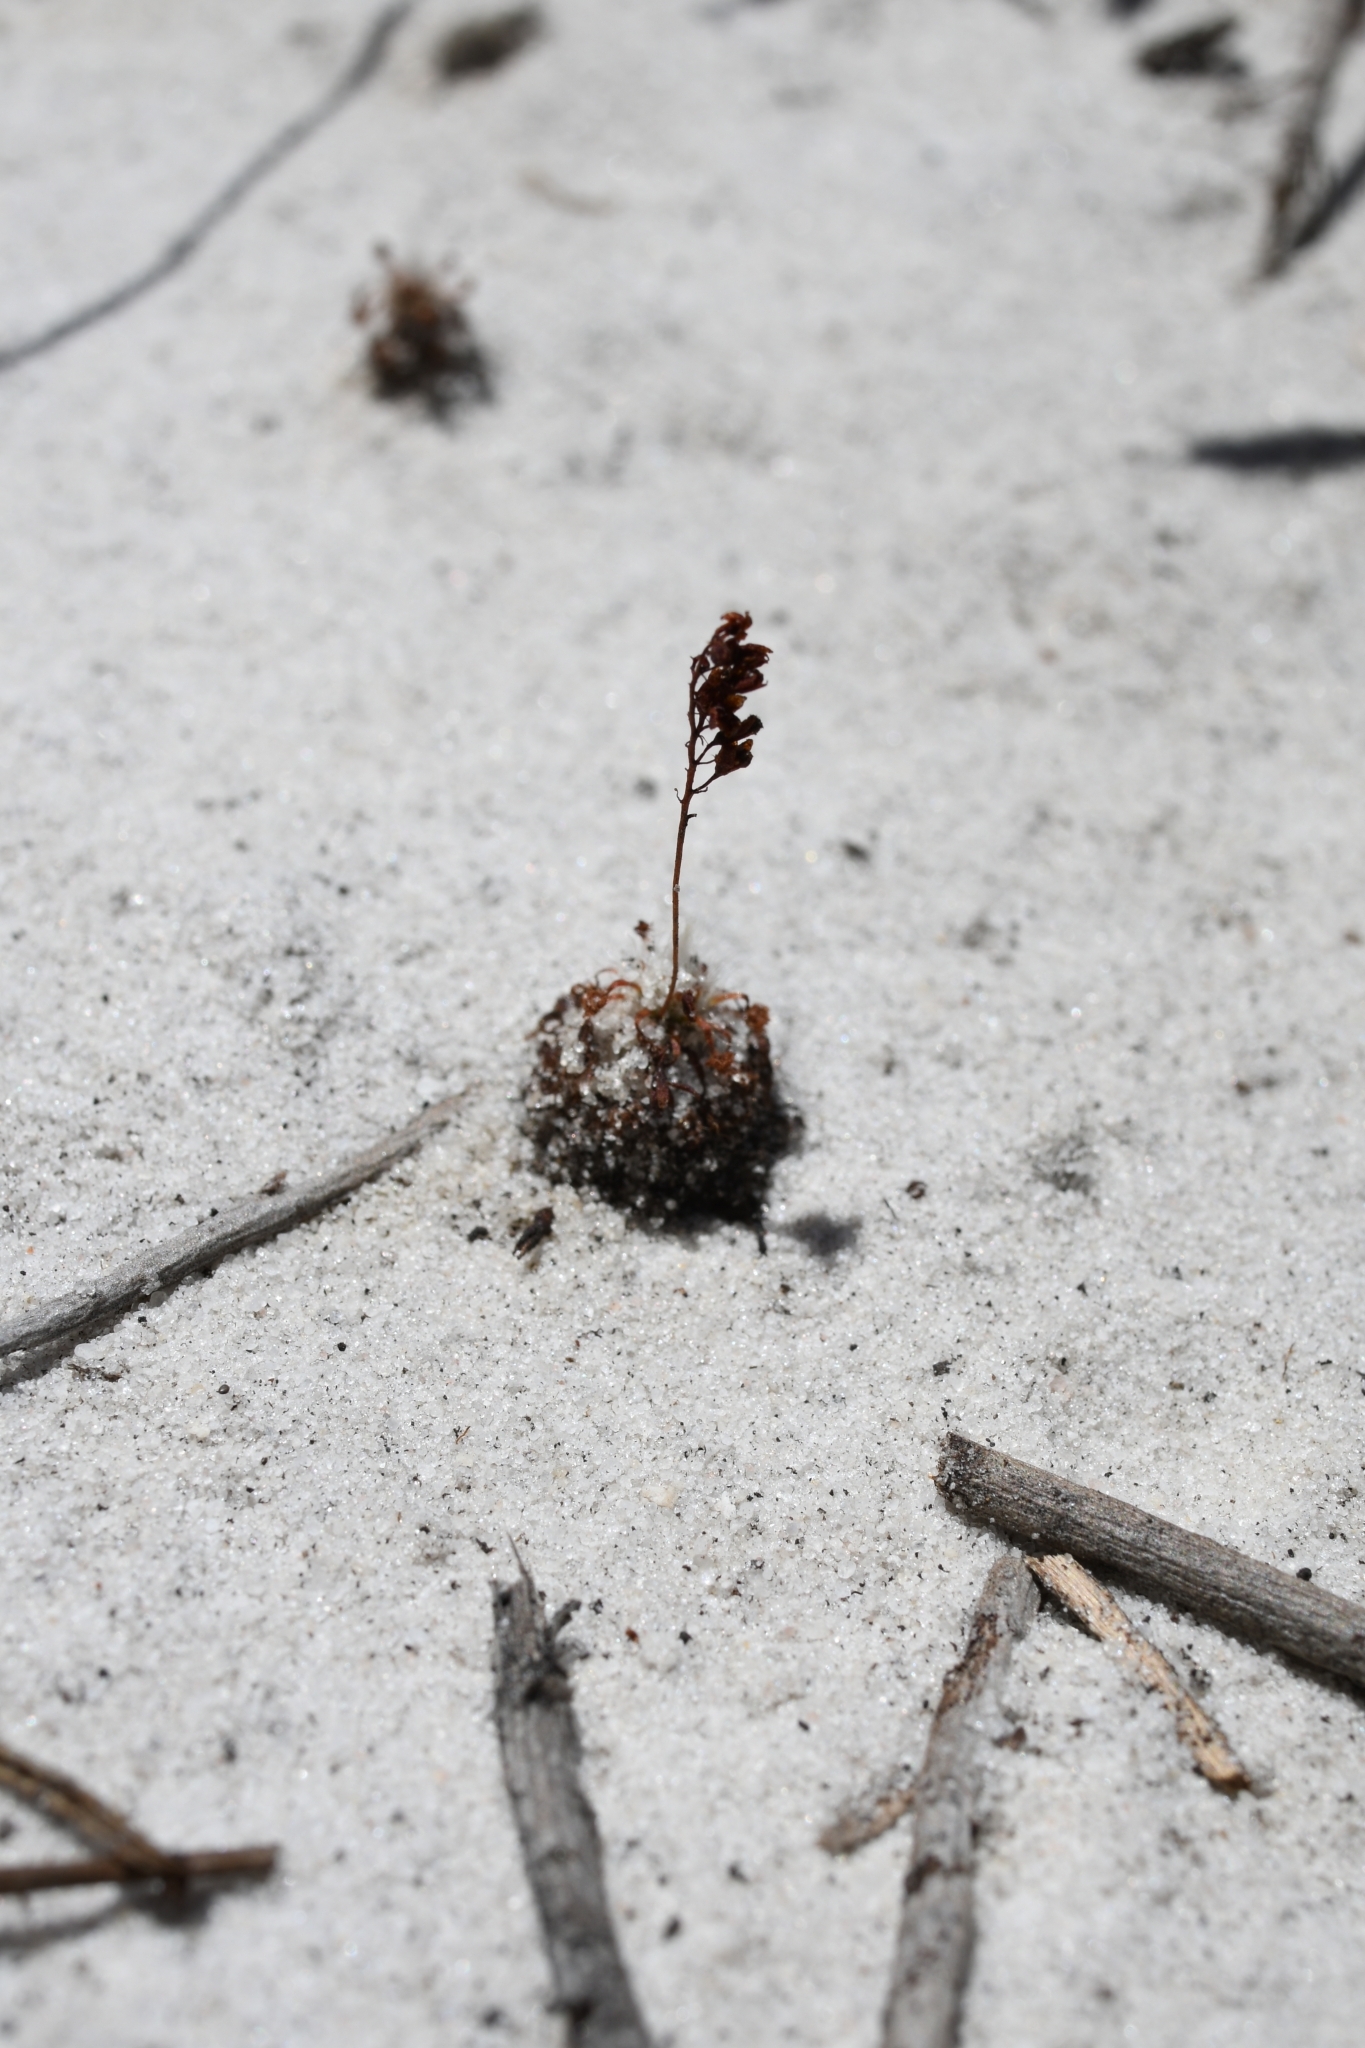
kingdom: Plantae
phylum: Tracheophyta
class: Magnoliopsida
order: Caryophyllales
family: Droseraceae
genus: Drosera
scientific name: Drosera paleacea
